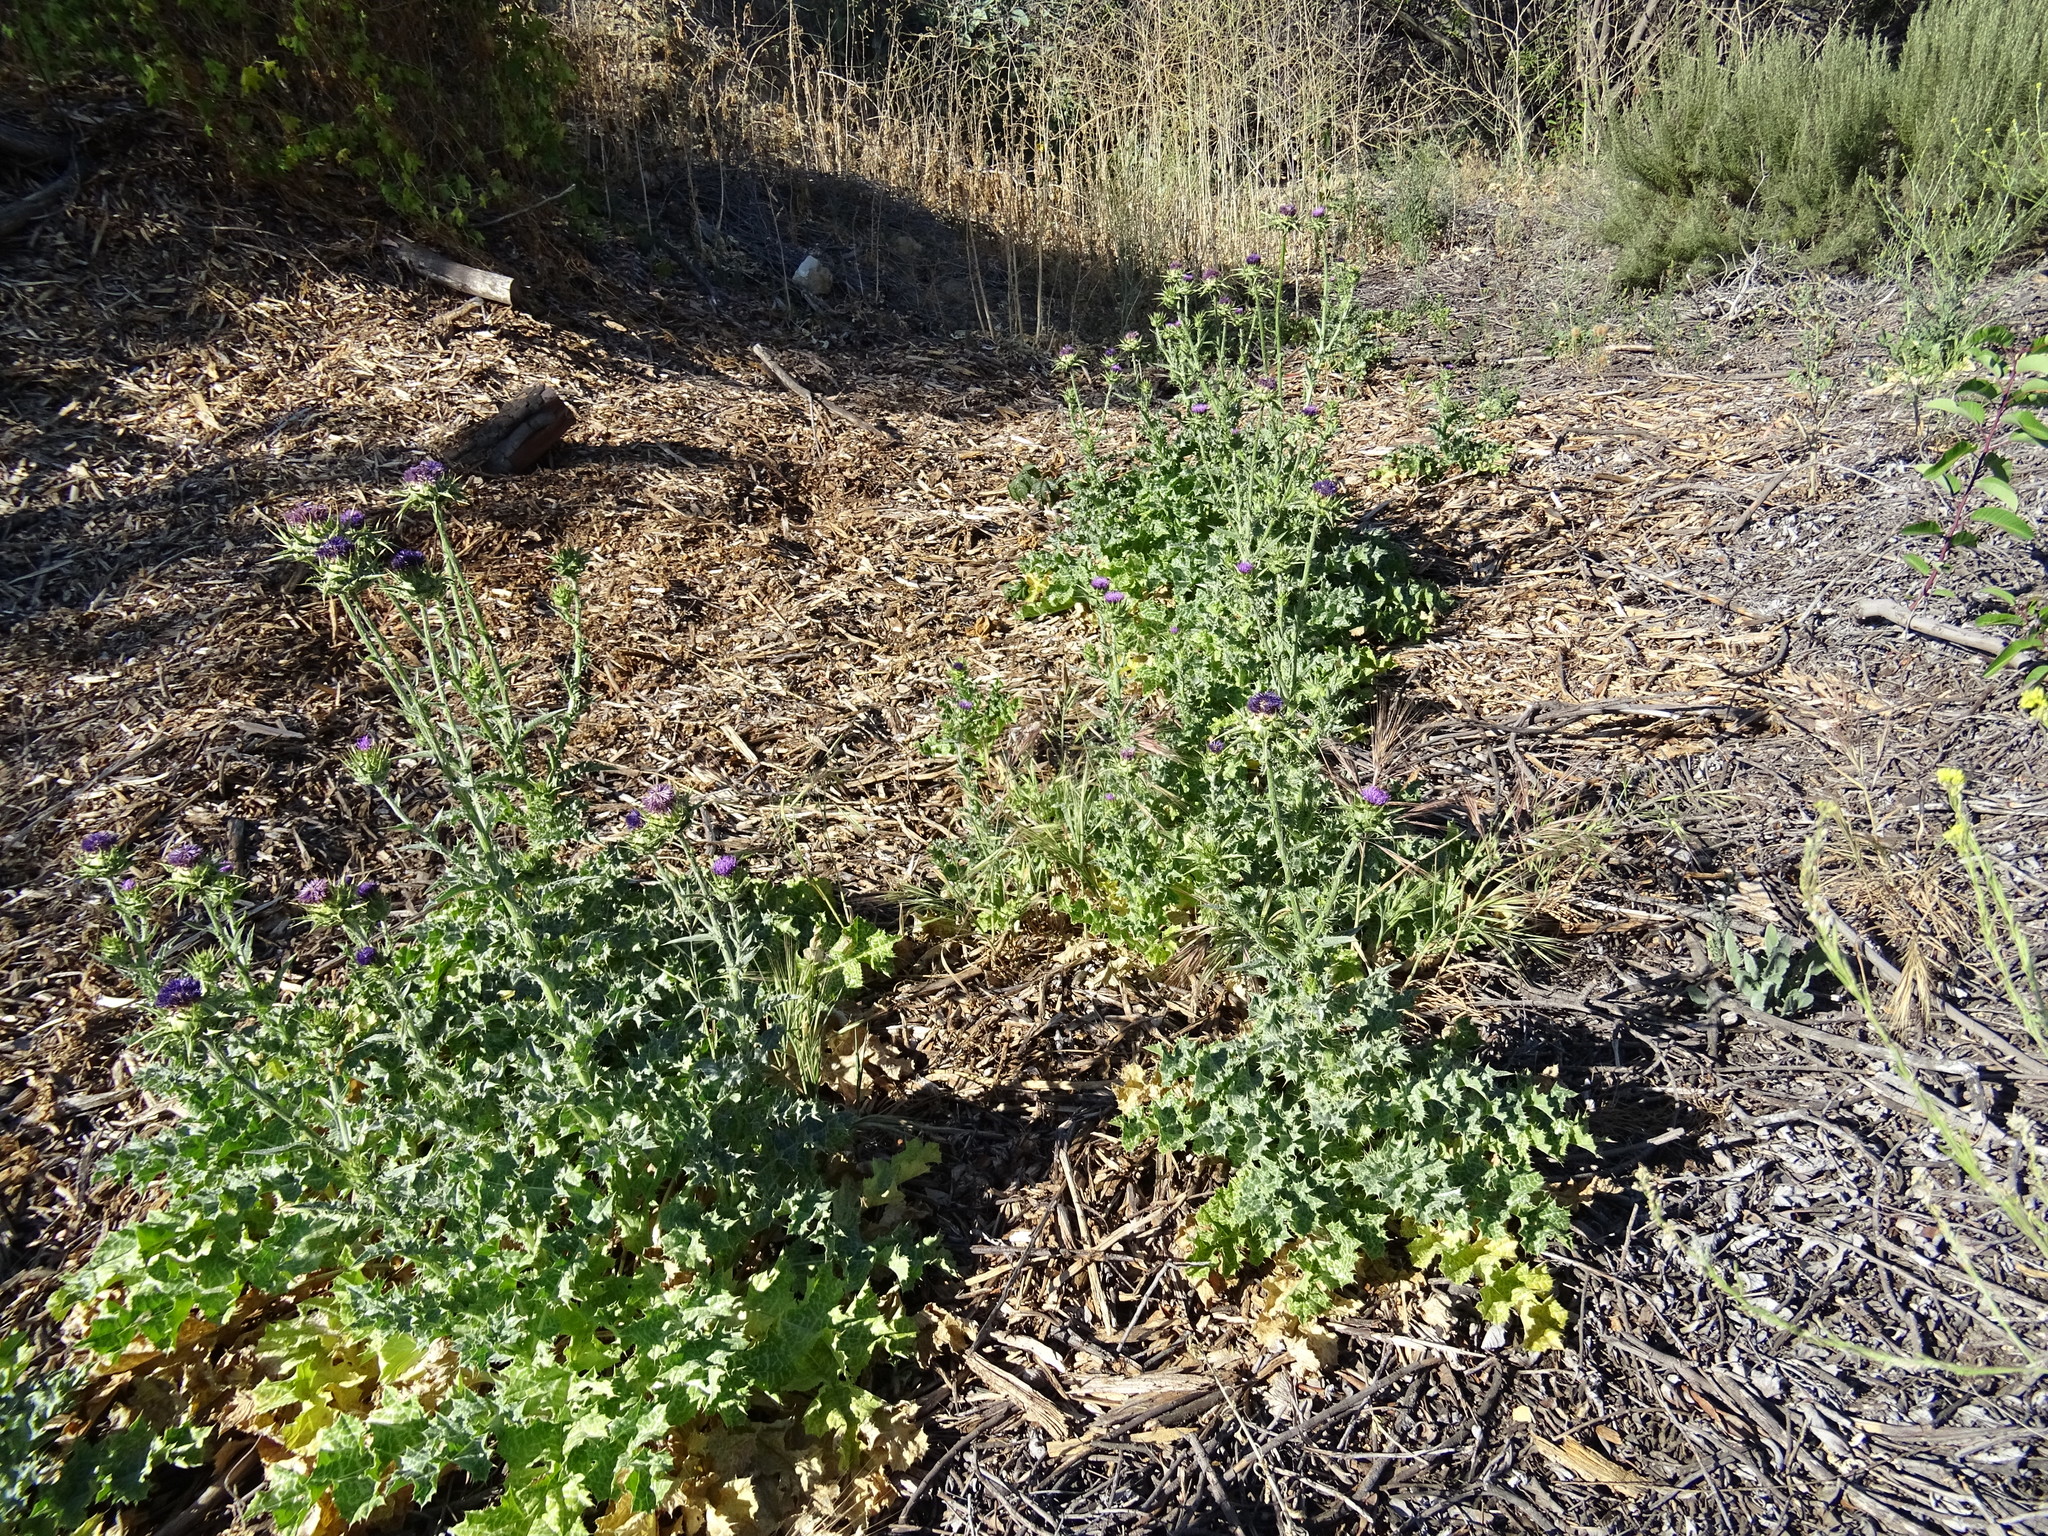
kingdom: Plantae
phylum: Tracheophyta
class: Magnoliopsida
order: Asterales
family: Asteraceae
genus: Silybum
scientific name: Silybum marianum
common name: Milk thistle
